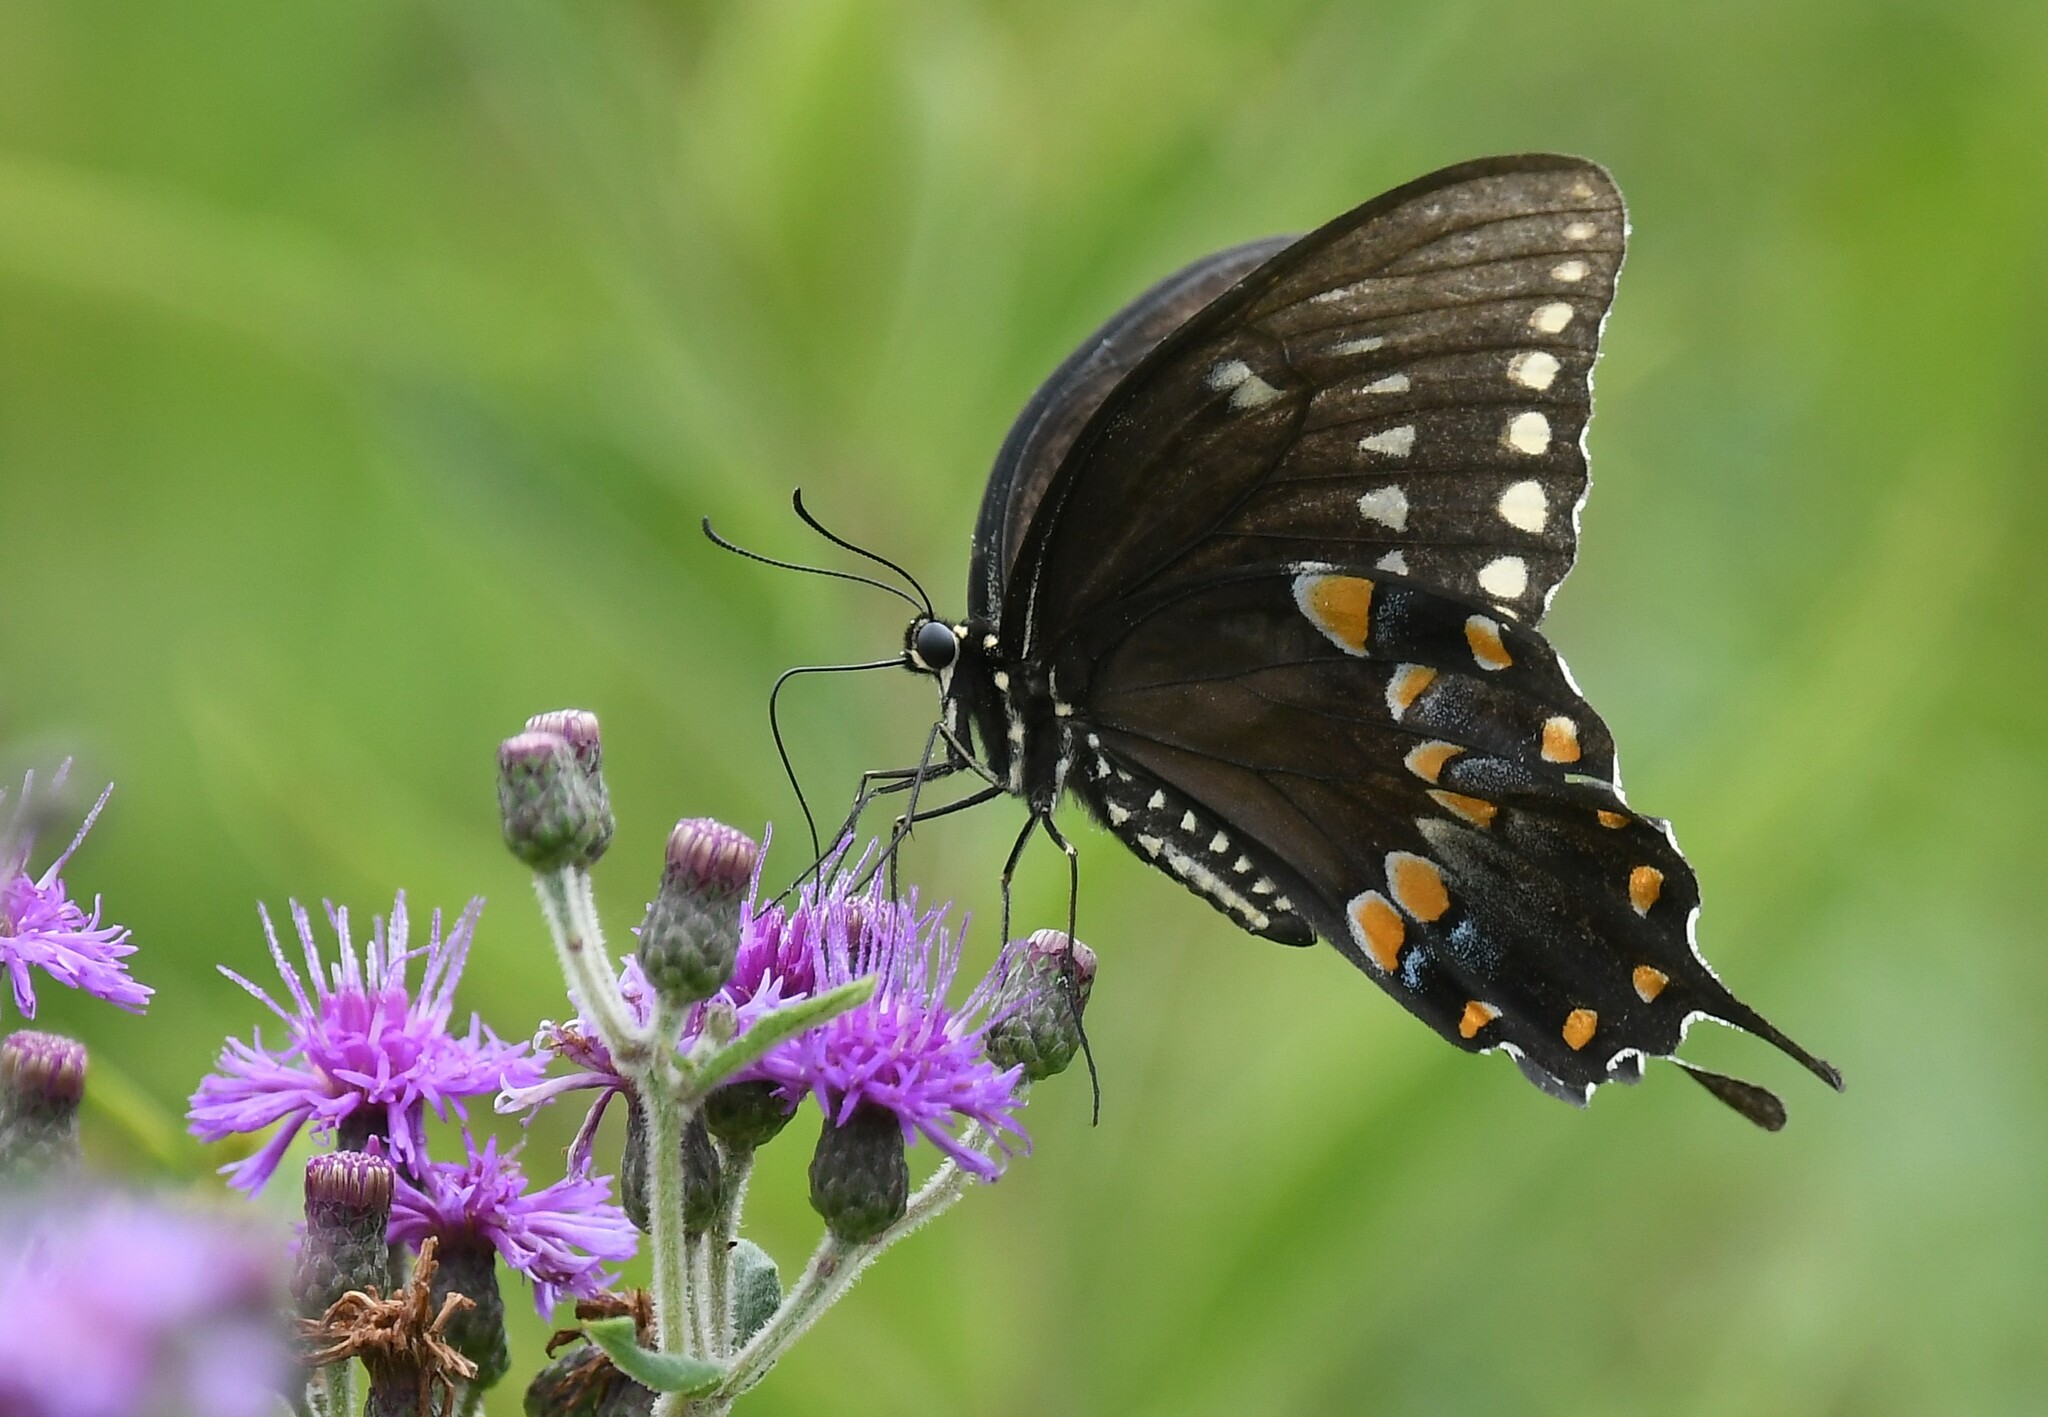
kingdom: Animalia
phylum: Arthropoda
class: Insecta
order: Lepidoptera
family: Papilionidae
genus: Papilio
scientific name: Papilio troilus
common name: Spicebush swallowtail
